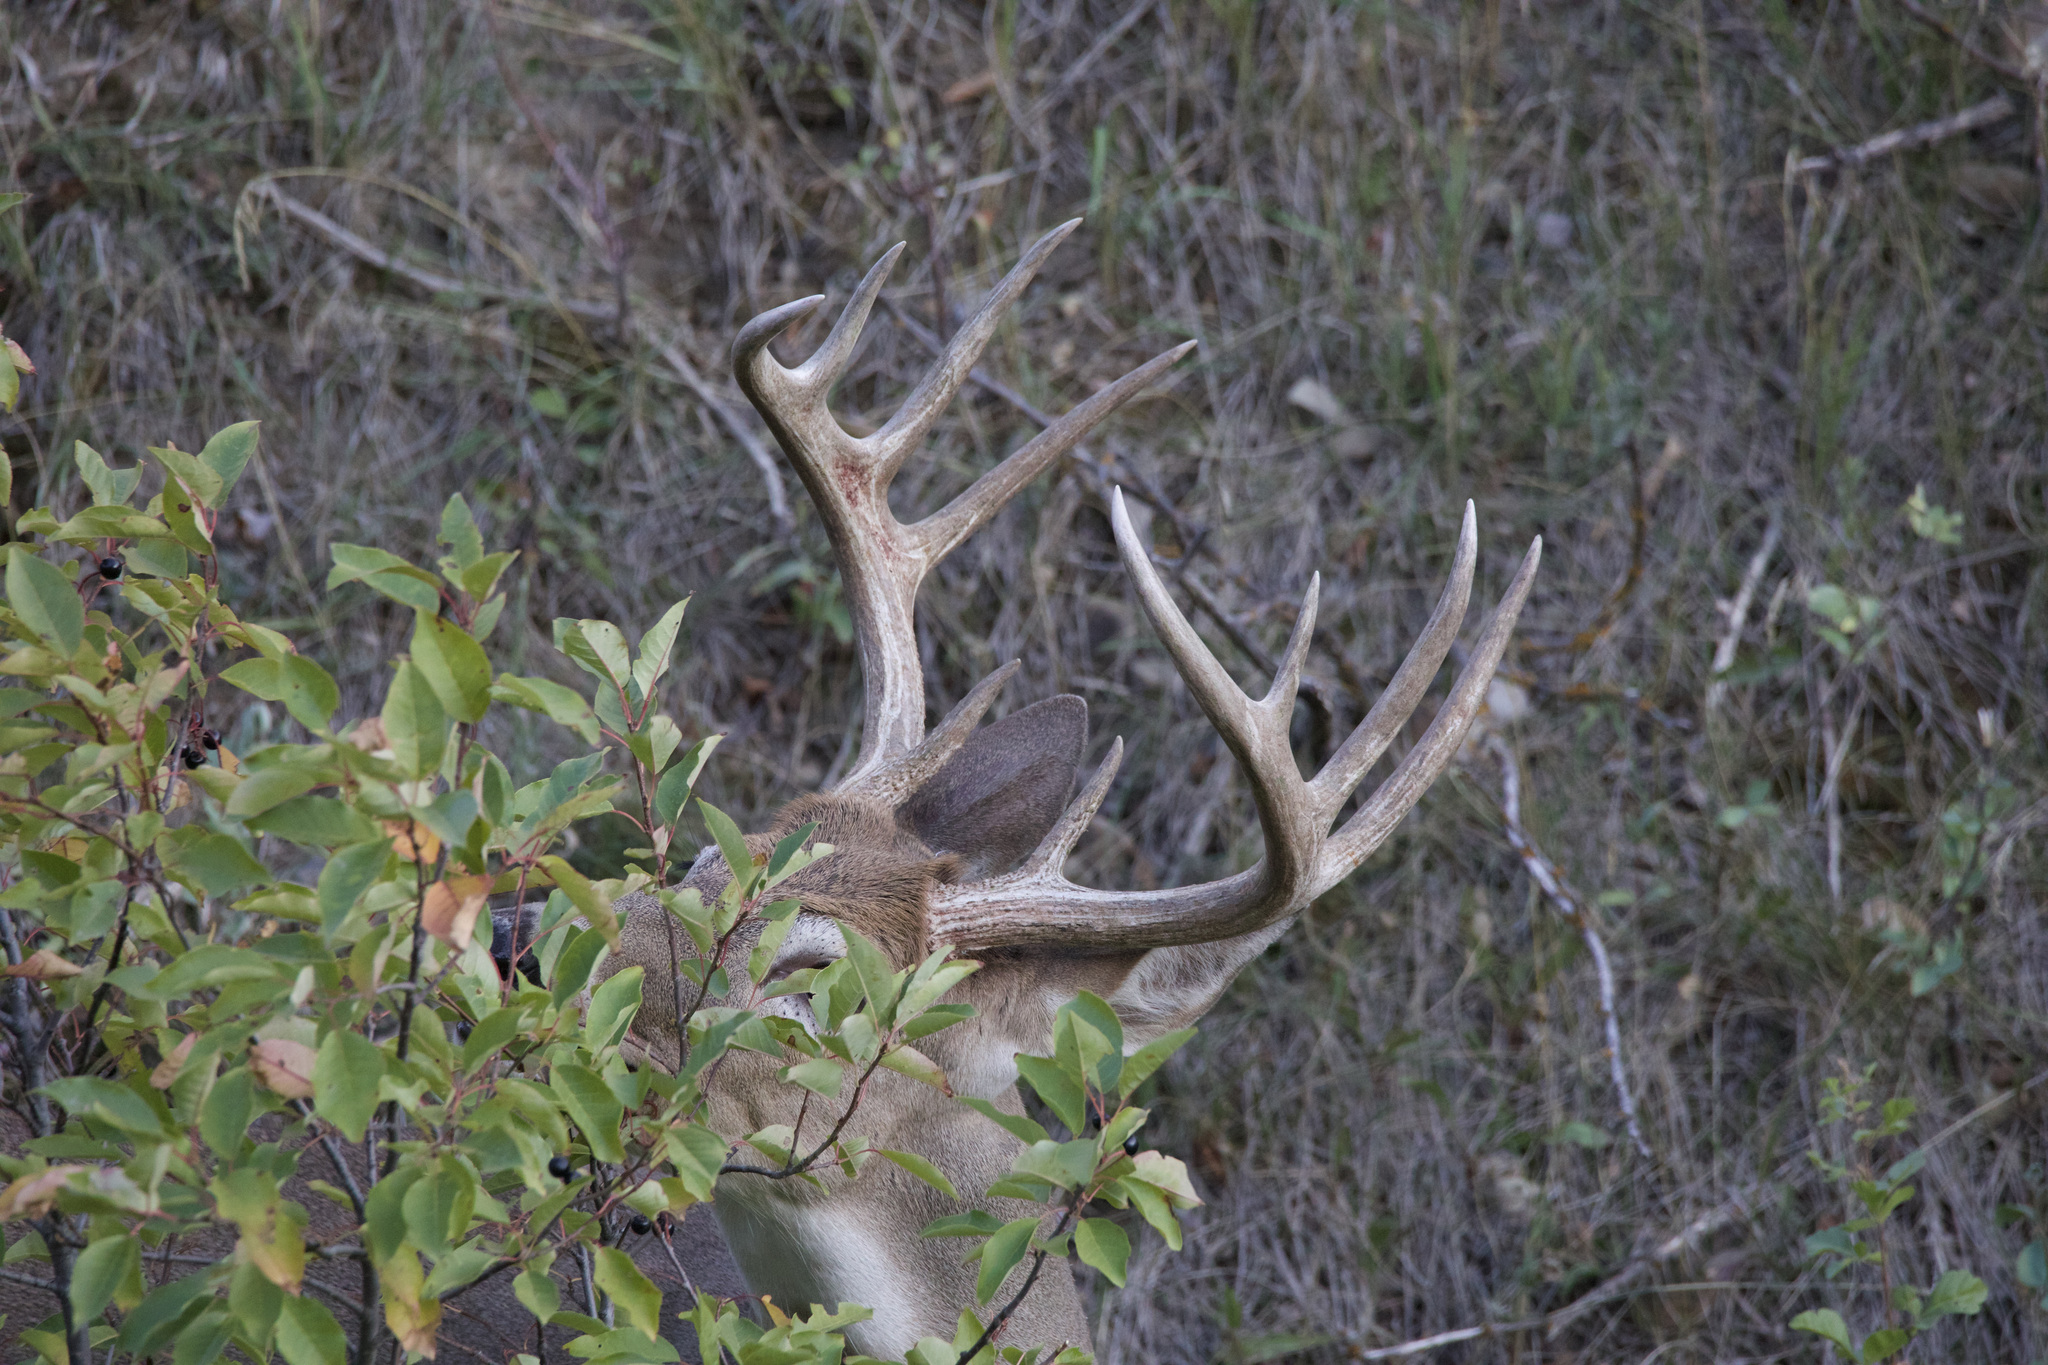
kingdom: Animalia
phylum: Chordata
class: Mammalia
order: Artiodactyla
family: Cervidae
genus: Odocoileus
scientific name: Odocoileus virginianus
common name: White-tailed deer
